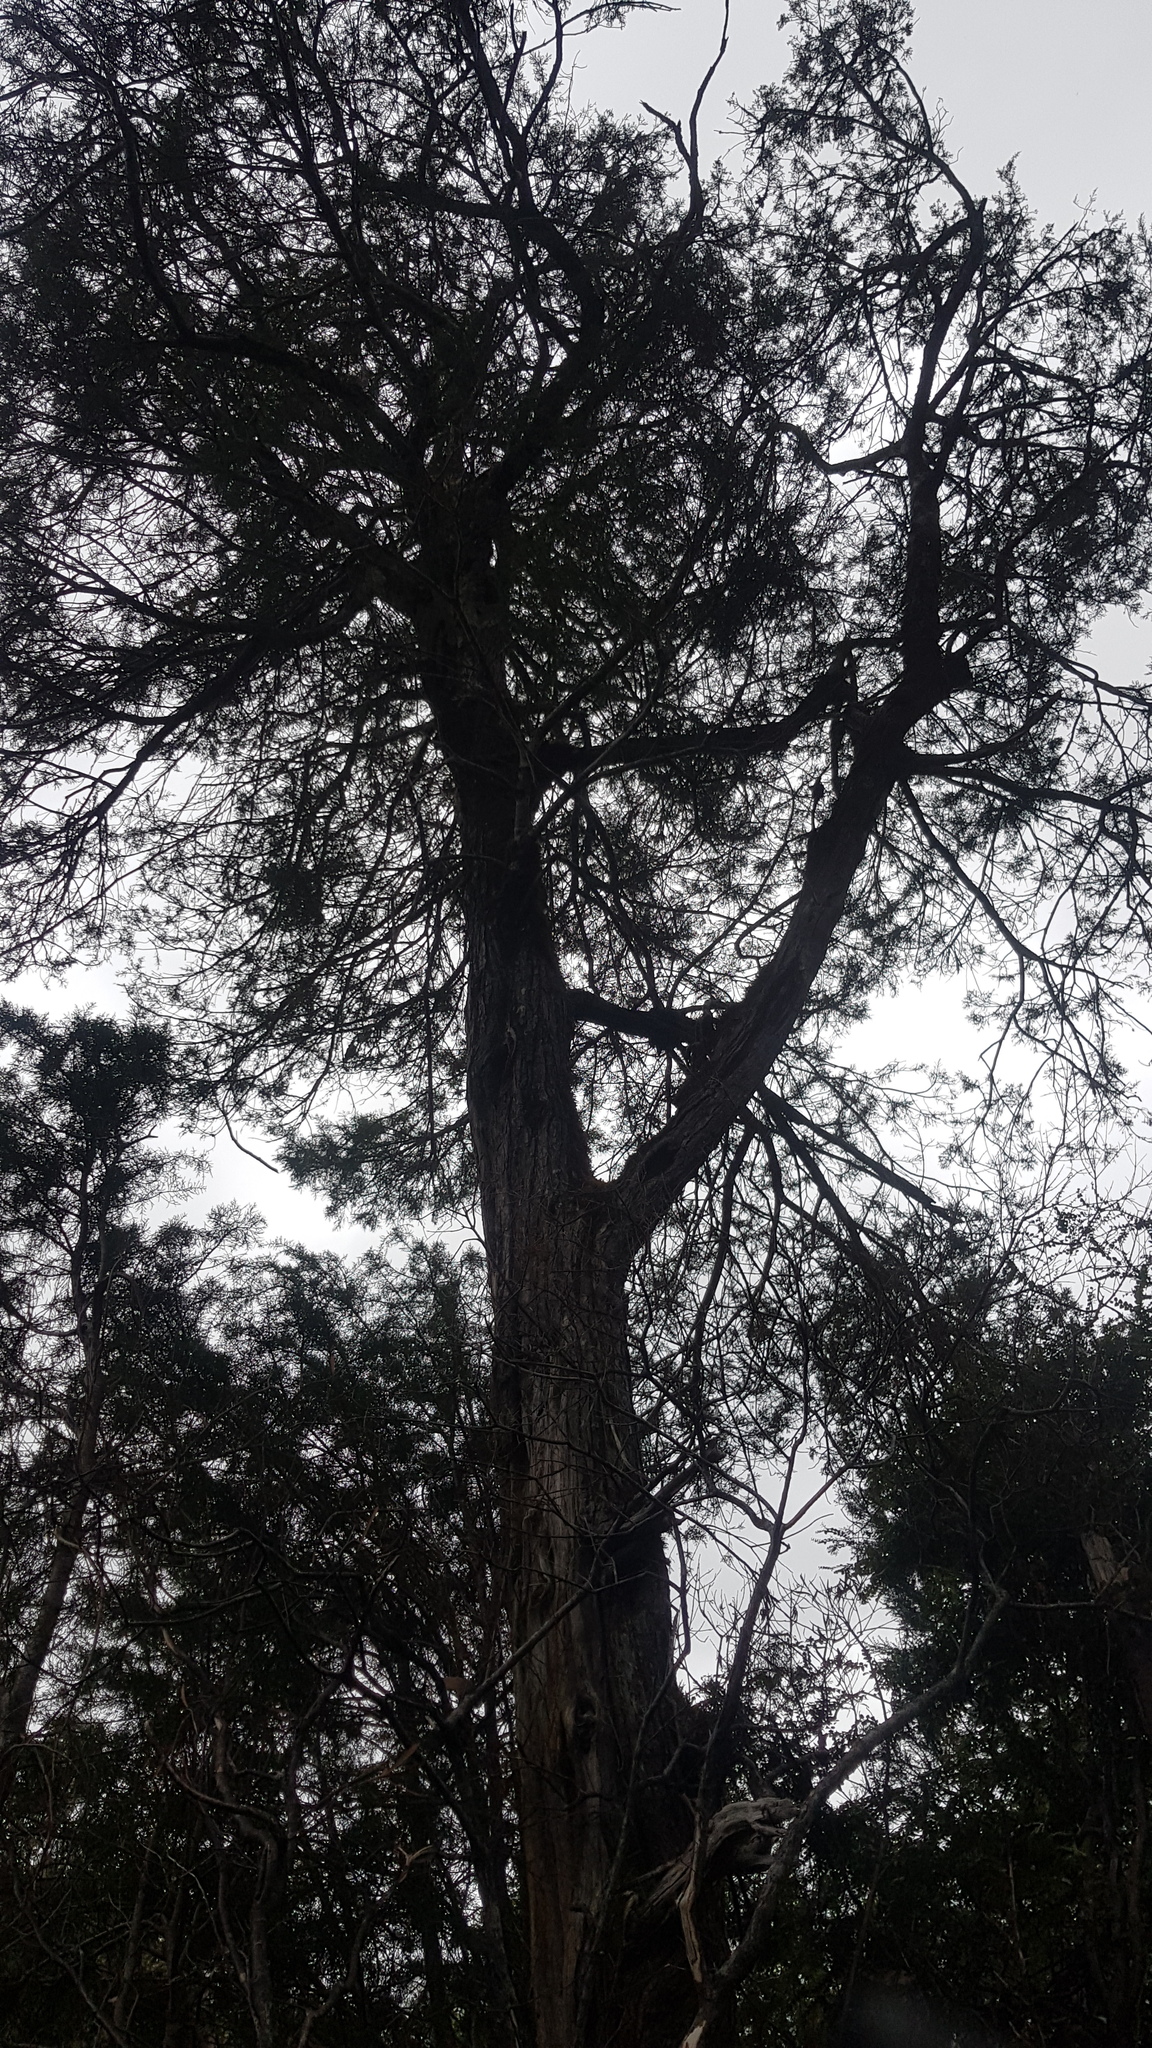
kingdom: Plantae
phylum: Tracheophyta
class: Pinopsida
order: Pinales
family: Podocarpaceae
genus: Lagarostrobos
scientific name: Lagarostrobos franklinii
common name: Huon pine
